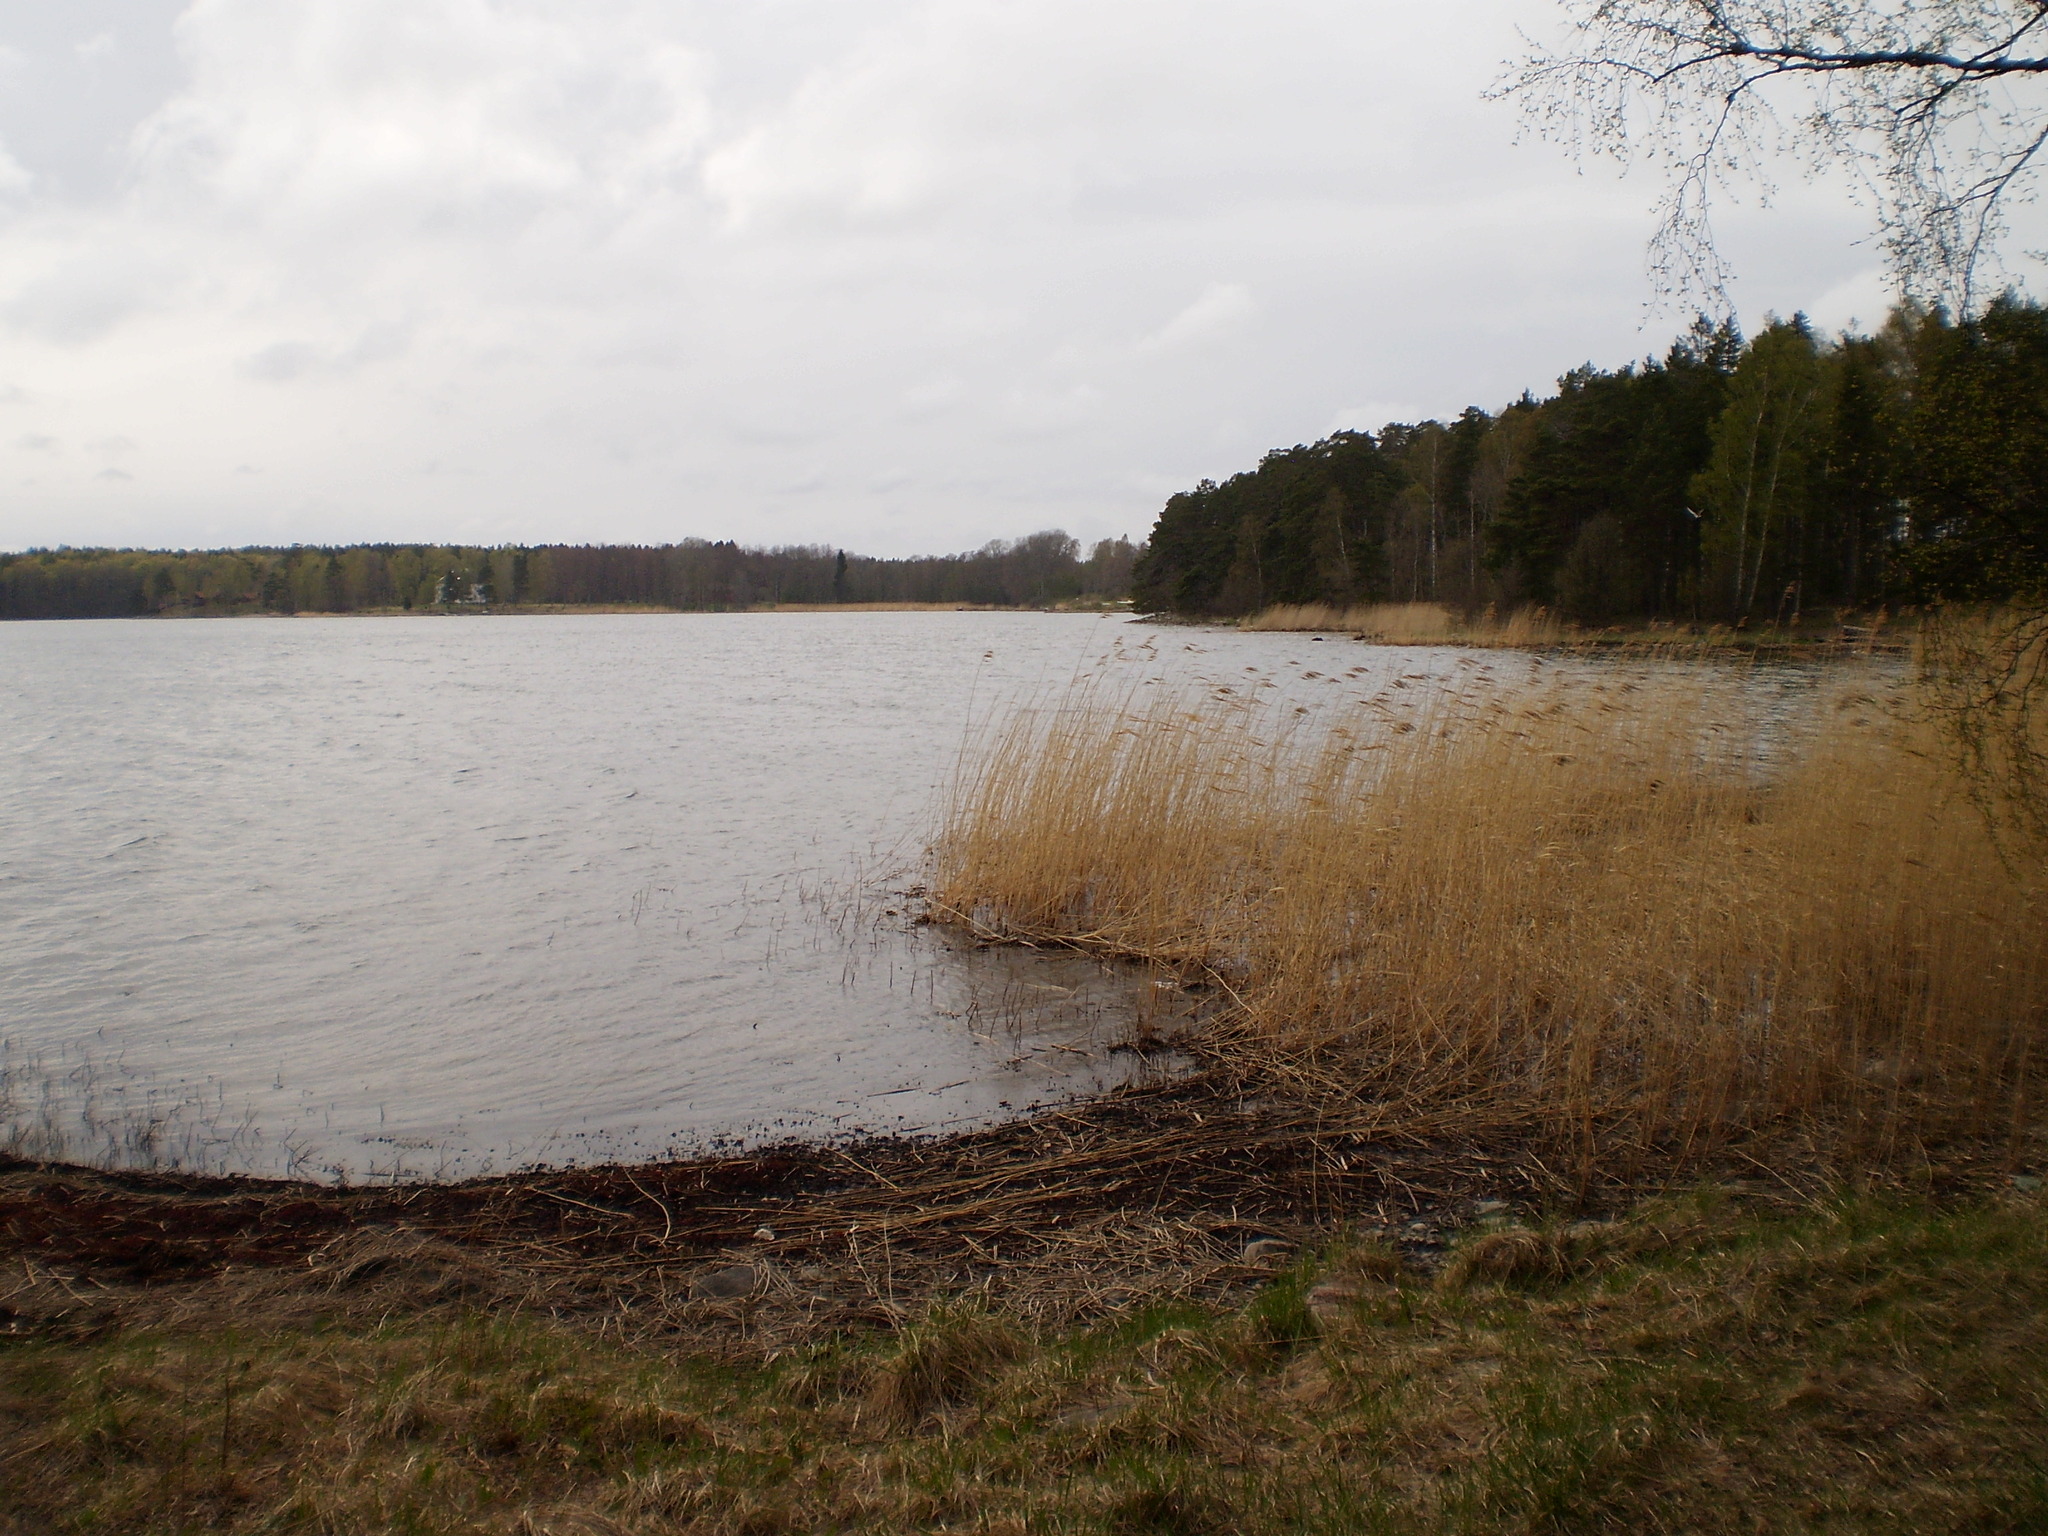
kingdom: Plantae
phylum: Tracheophyta
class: Liliopsida
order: Poales
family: Poaceae
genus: Phragmites
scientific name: Phragmites australis
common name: Common reed
